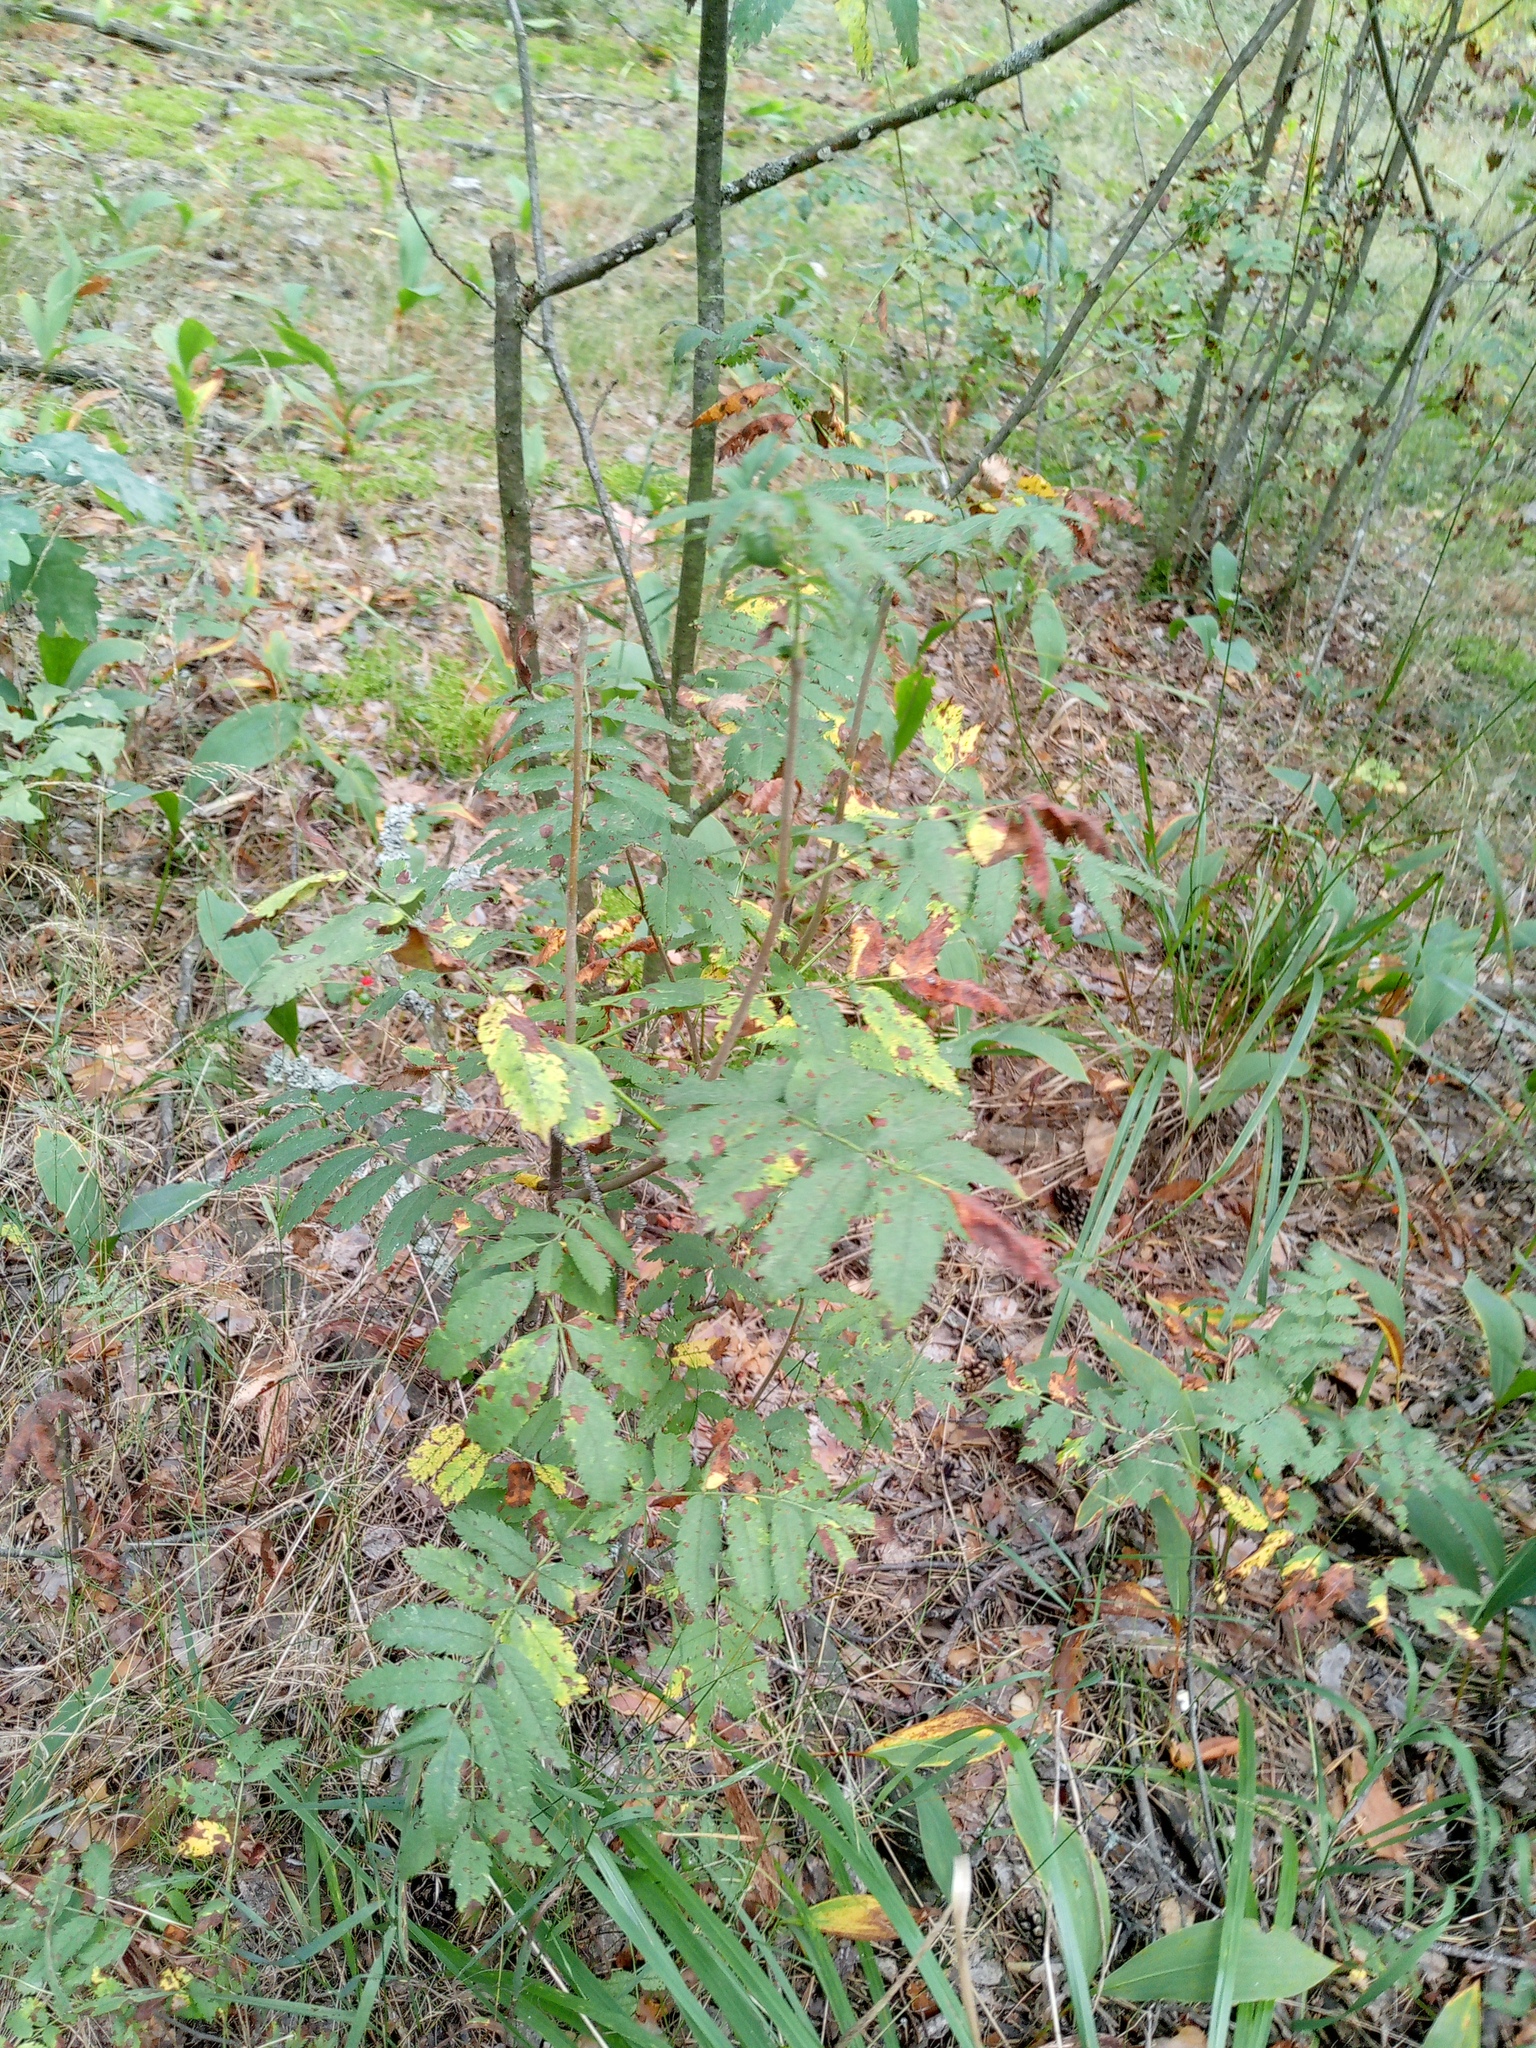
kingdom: Plantae
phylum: Tracheophyta
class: Magnoliopsida
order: Rosales
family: Rosaceae
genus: Sorbus
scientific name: Sorbus aucuparia
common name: Rowan
